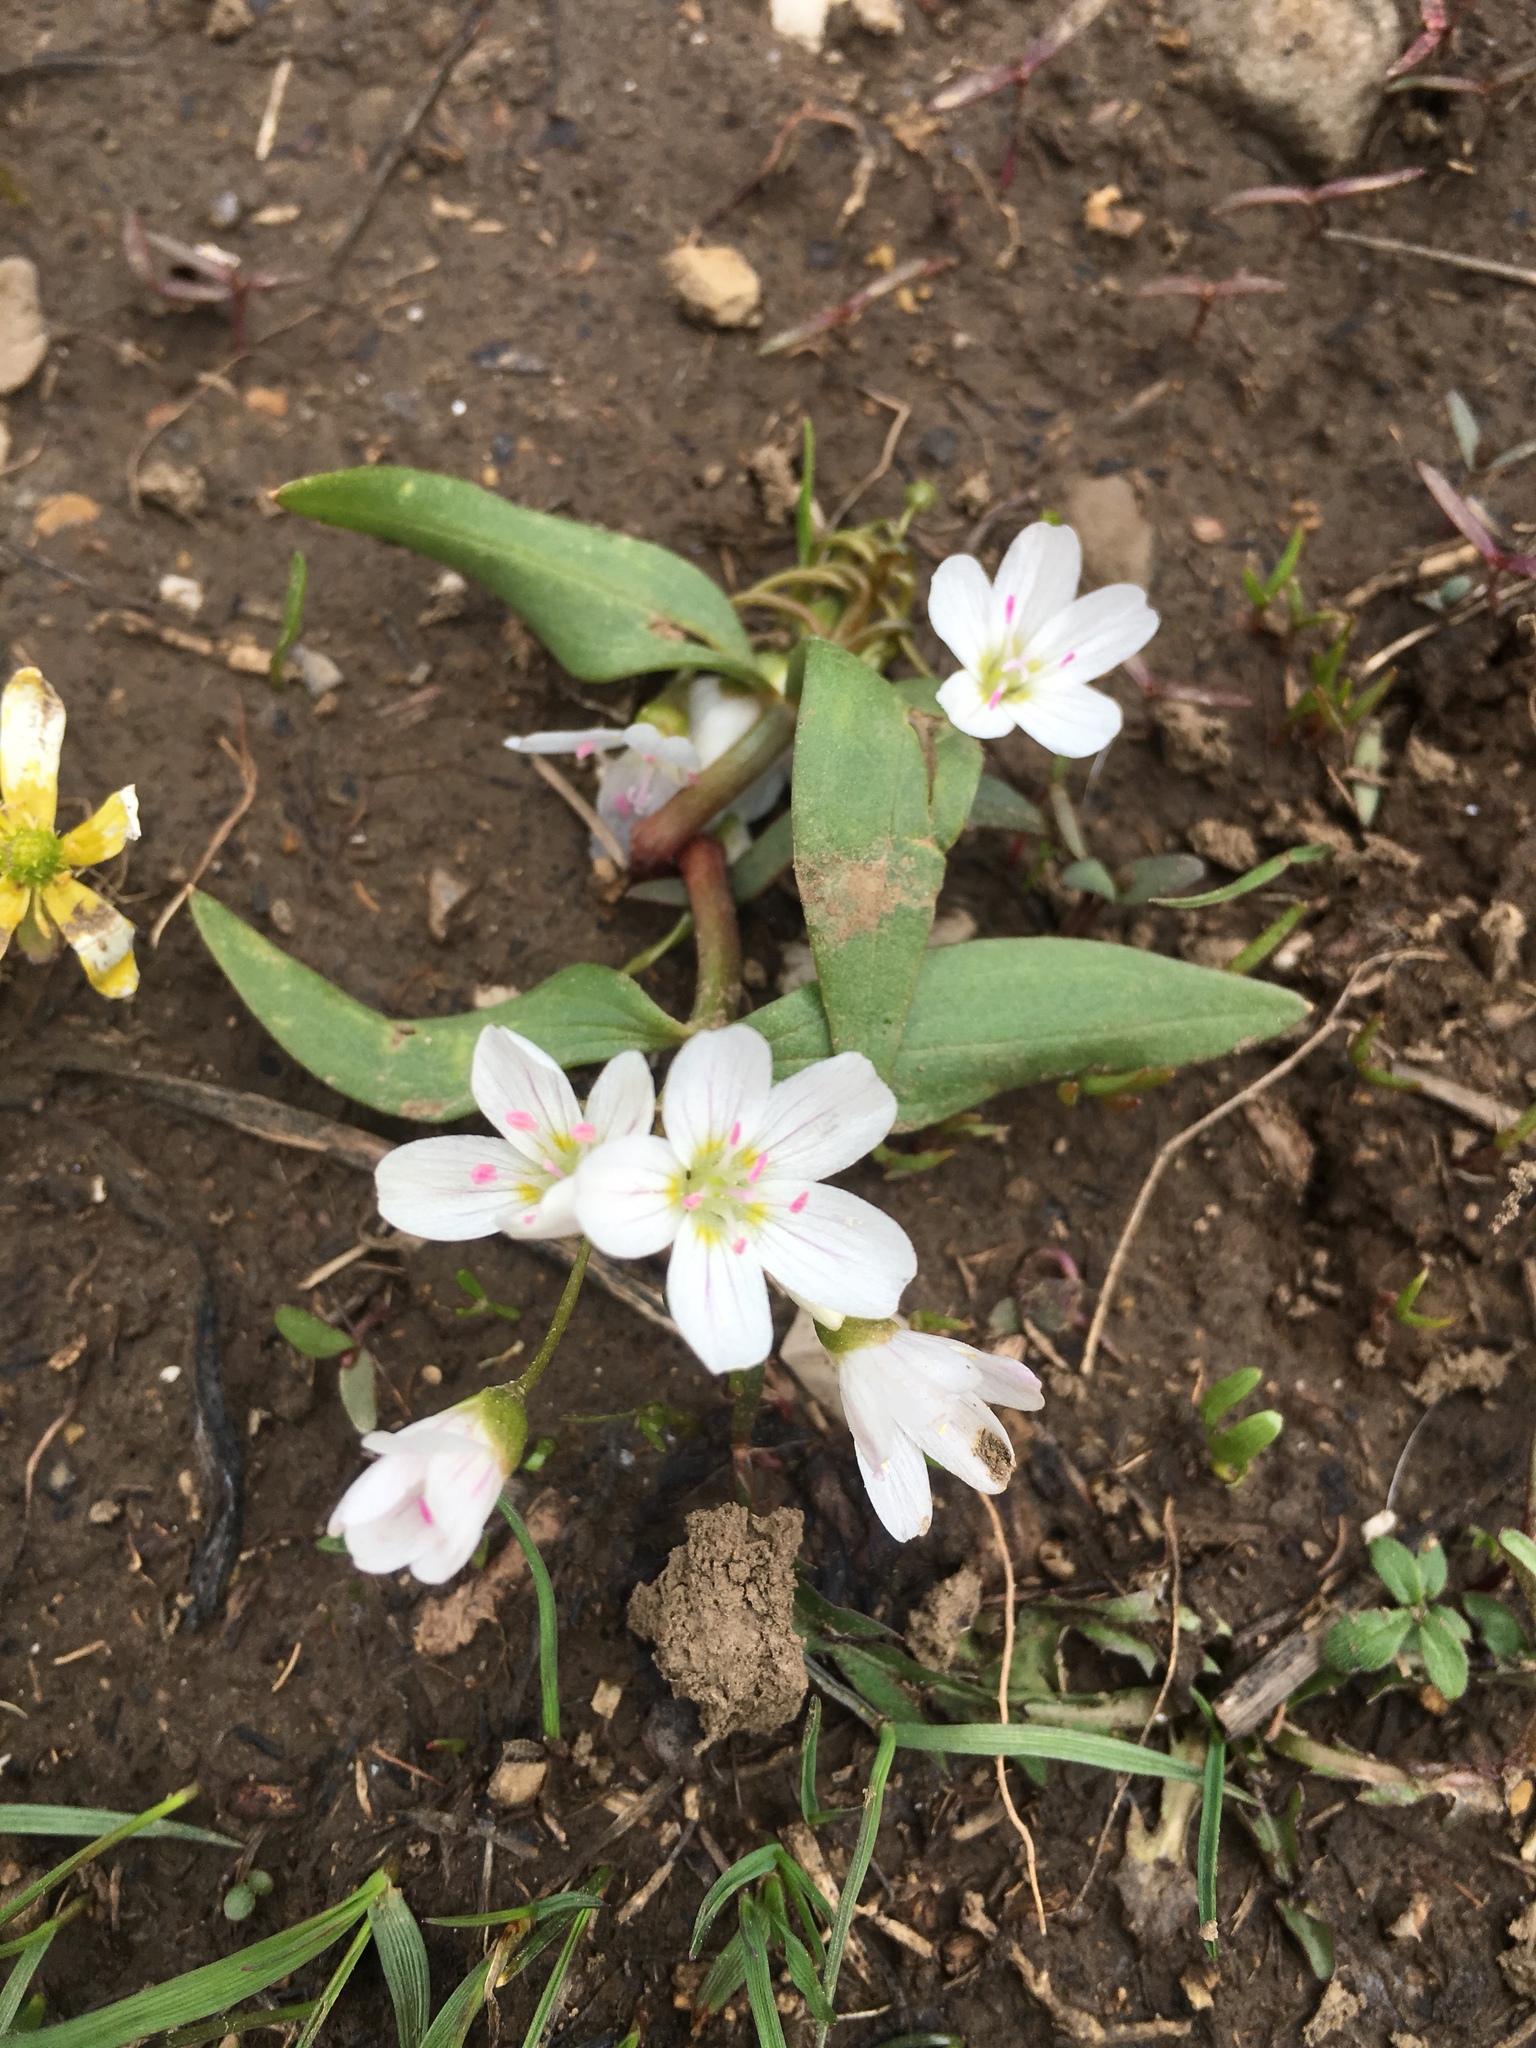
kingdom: Plantae
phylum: Tracheophyta
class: Magnoliopsida
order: Caryophyllales
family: Montiaceae
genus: Claytonia
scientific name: Claytonia lanceolata
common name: Western spring-beauty
